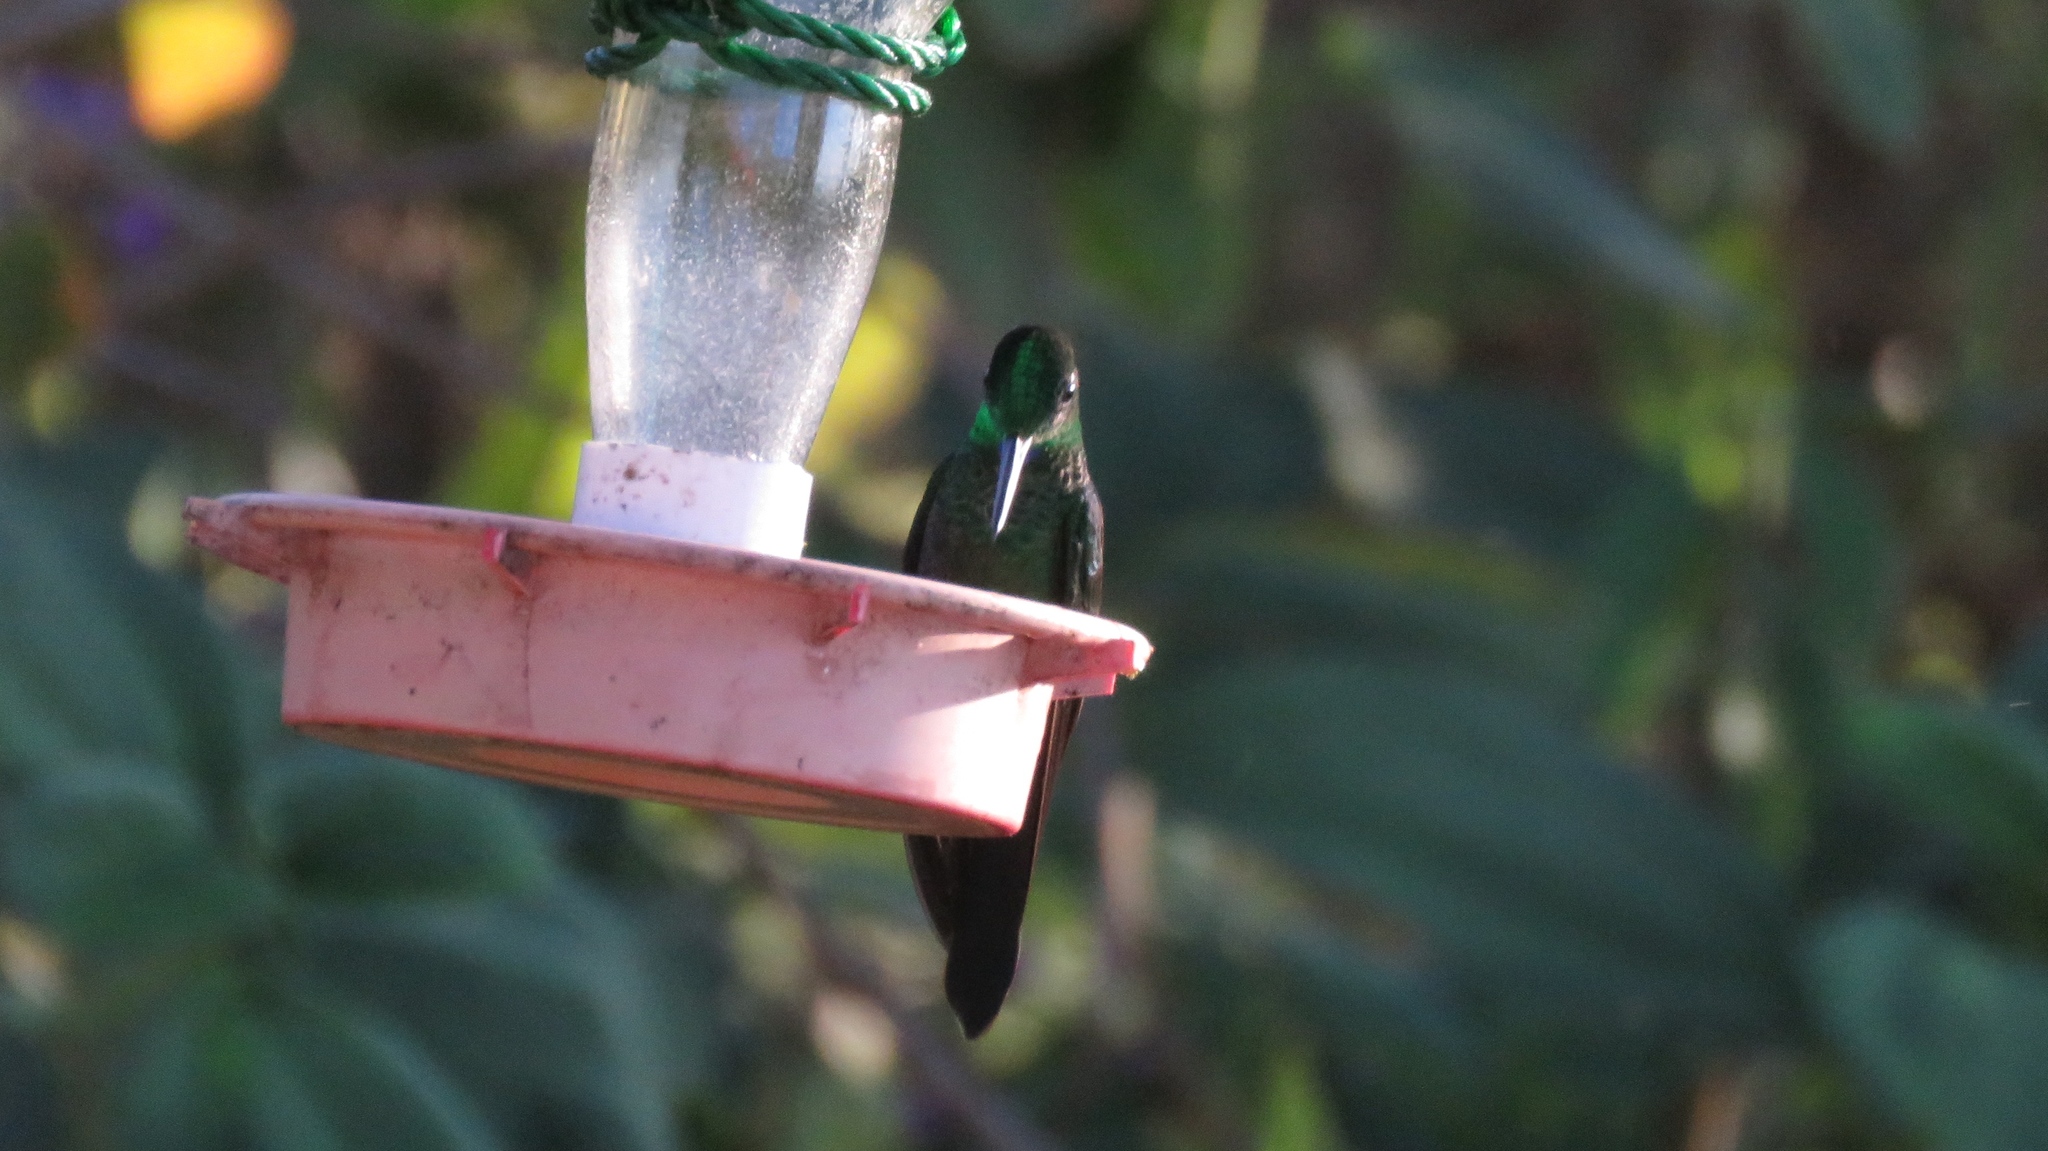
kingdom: Animalia
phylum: Chordata
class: Aves
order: Apodiformes
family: Trochilidae
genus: Heliodoxa
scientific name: Heliodoxa jacula
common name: Green-crowned brilliant
